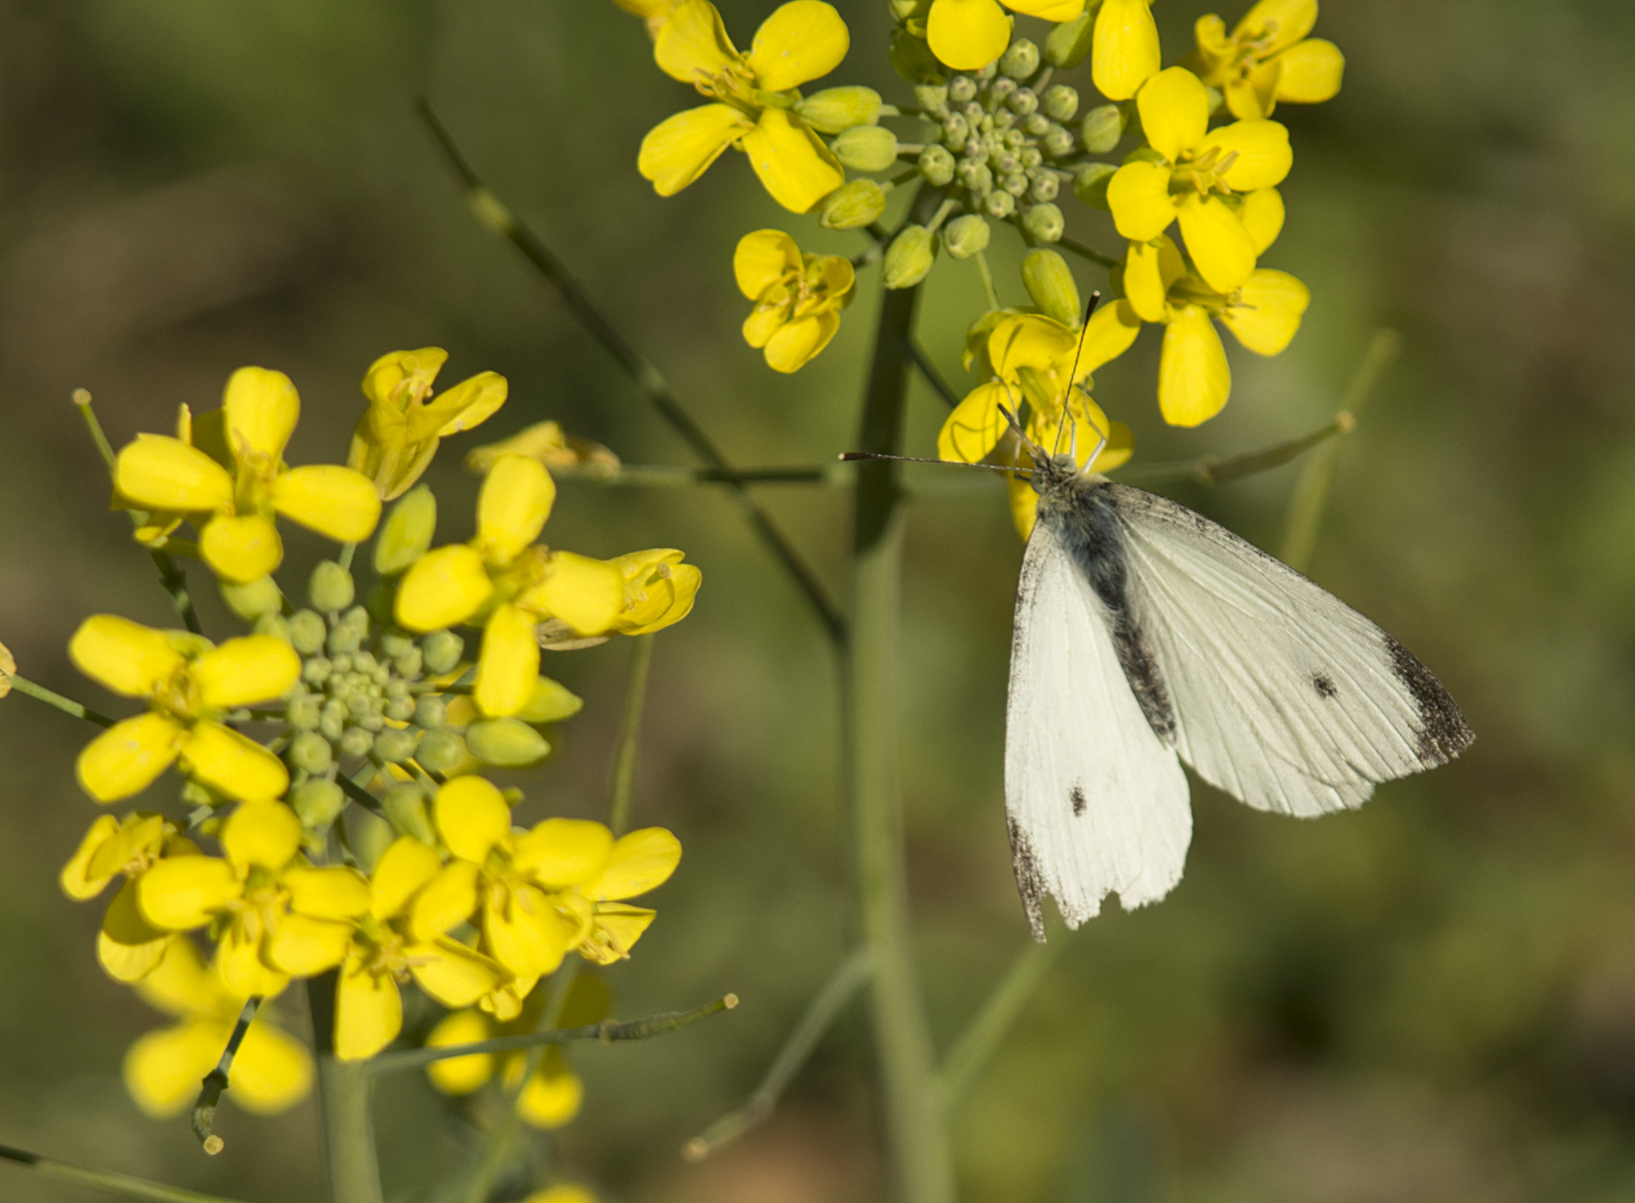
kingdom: Animalia
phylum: Arthropoda
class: Insecta
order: Lepidoptera
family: Pieridae
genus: Pieris
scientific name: Pieris rapae
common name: Small white
